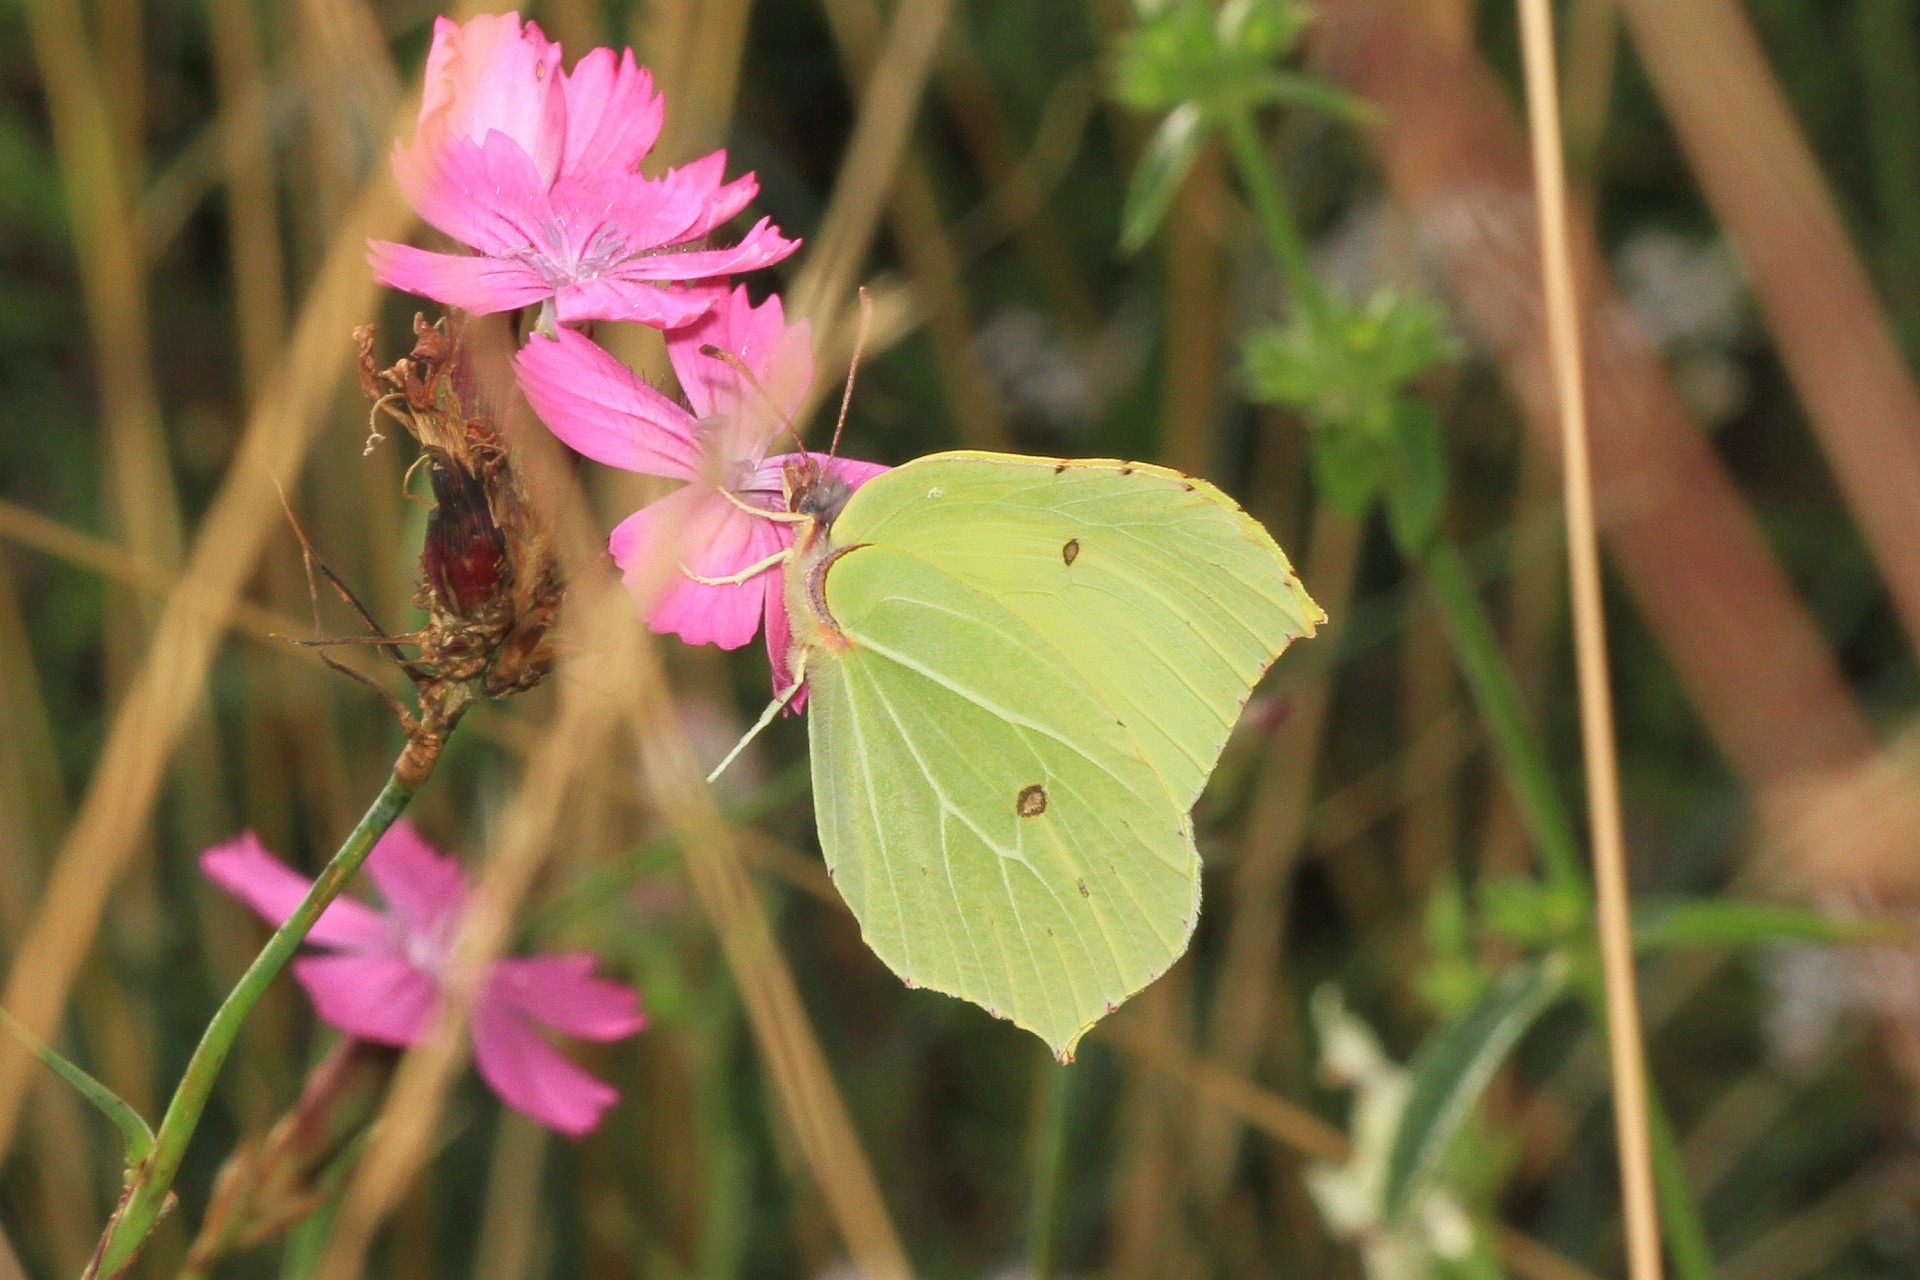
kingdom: Animalia
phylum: Arthropoda
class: Insecta
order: Lepidoptera
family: Pieridae
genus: Gonepteryx
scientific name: Gonepteryx rhamni
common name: Brimstone
